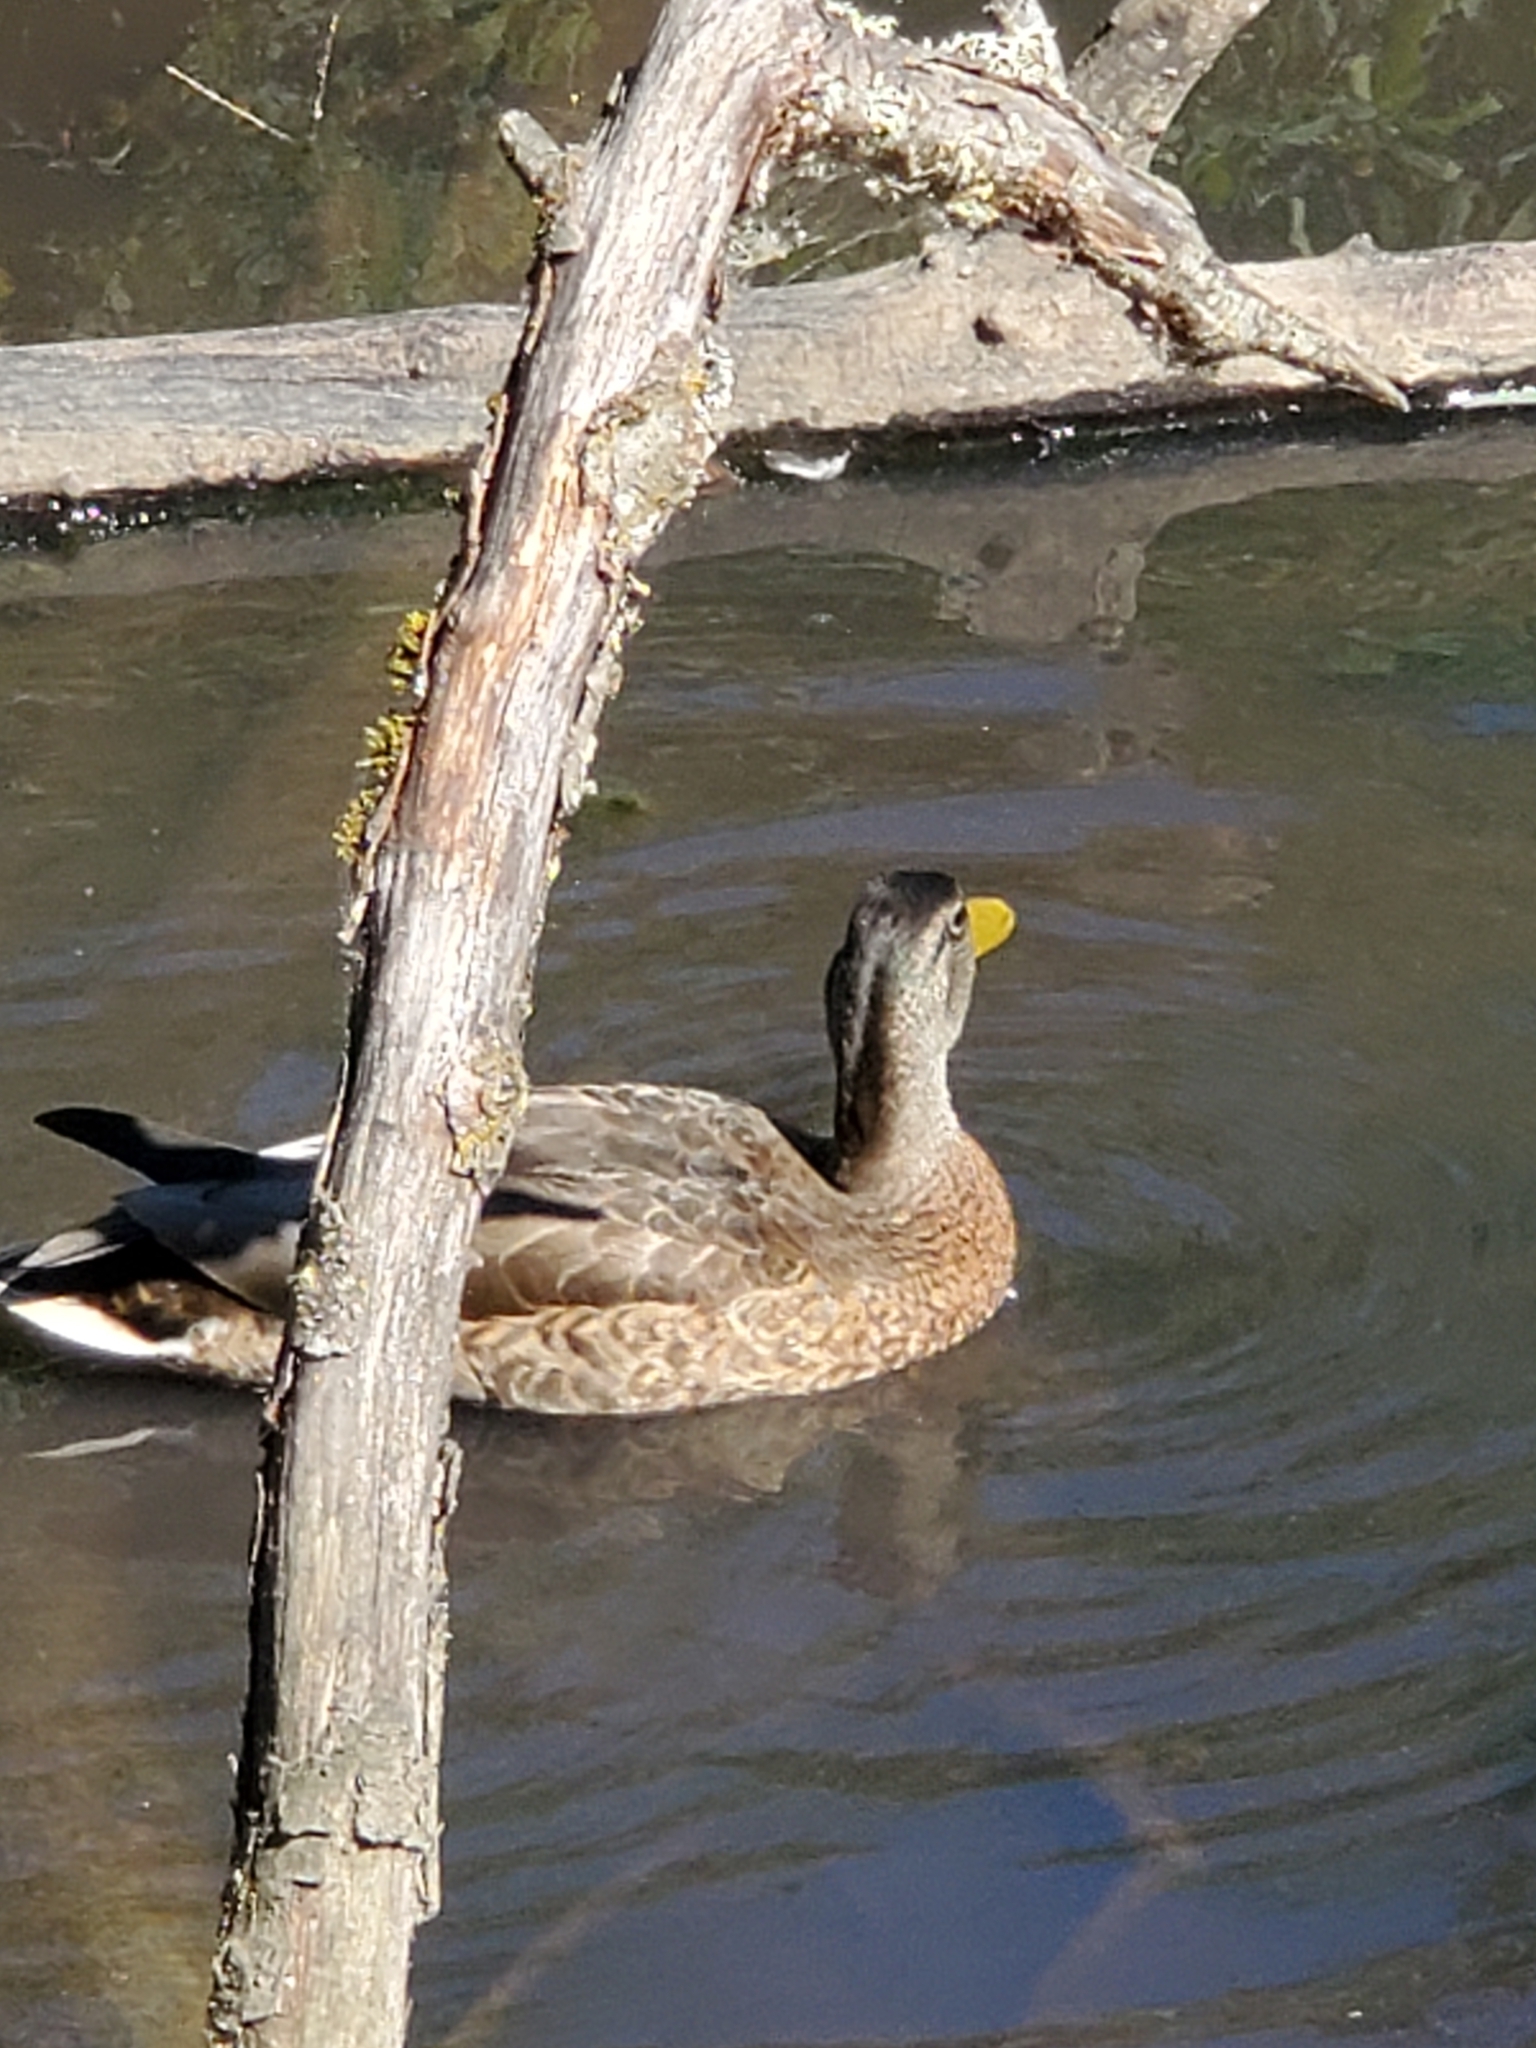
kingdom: Animalia
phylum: Chordata
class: Aves
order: Anseriformes
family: Anatidae
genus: Anas
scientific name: Anas platyrhynchos
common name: Mallard
